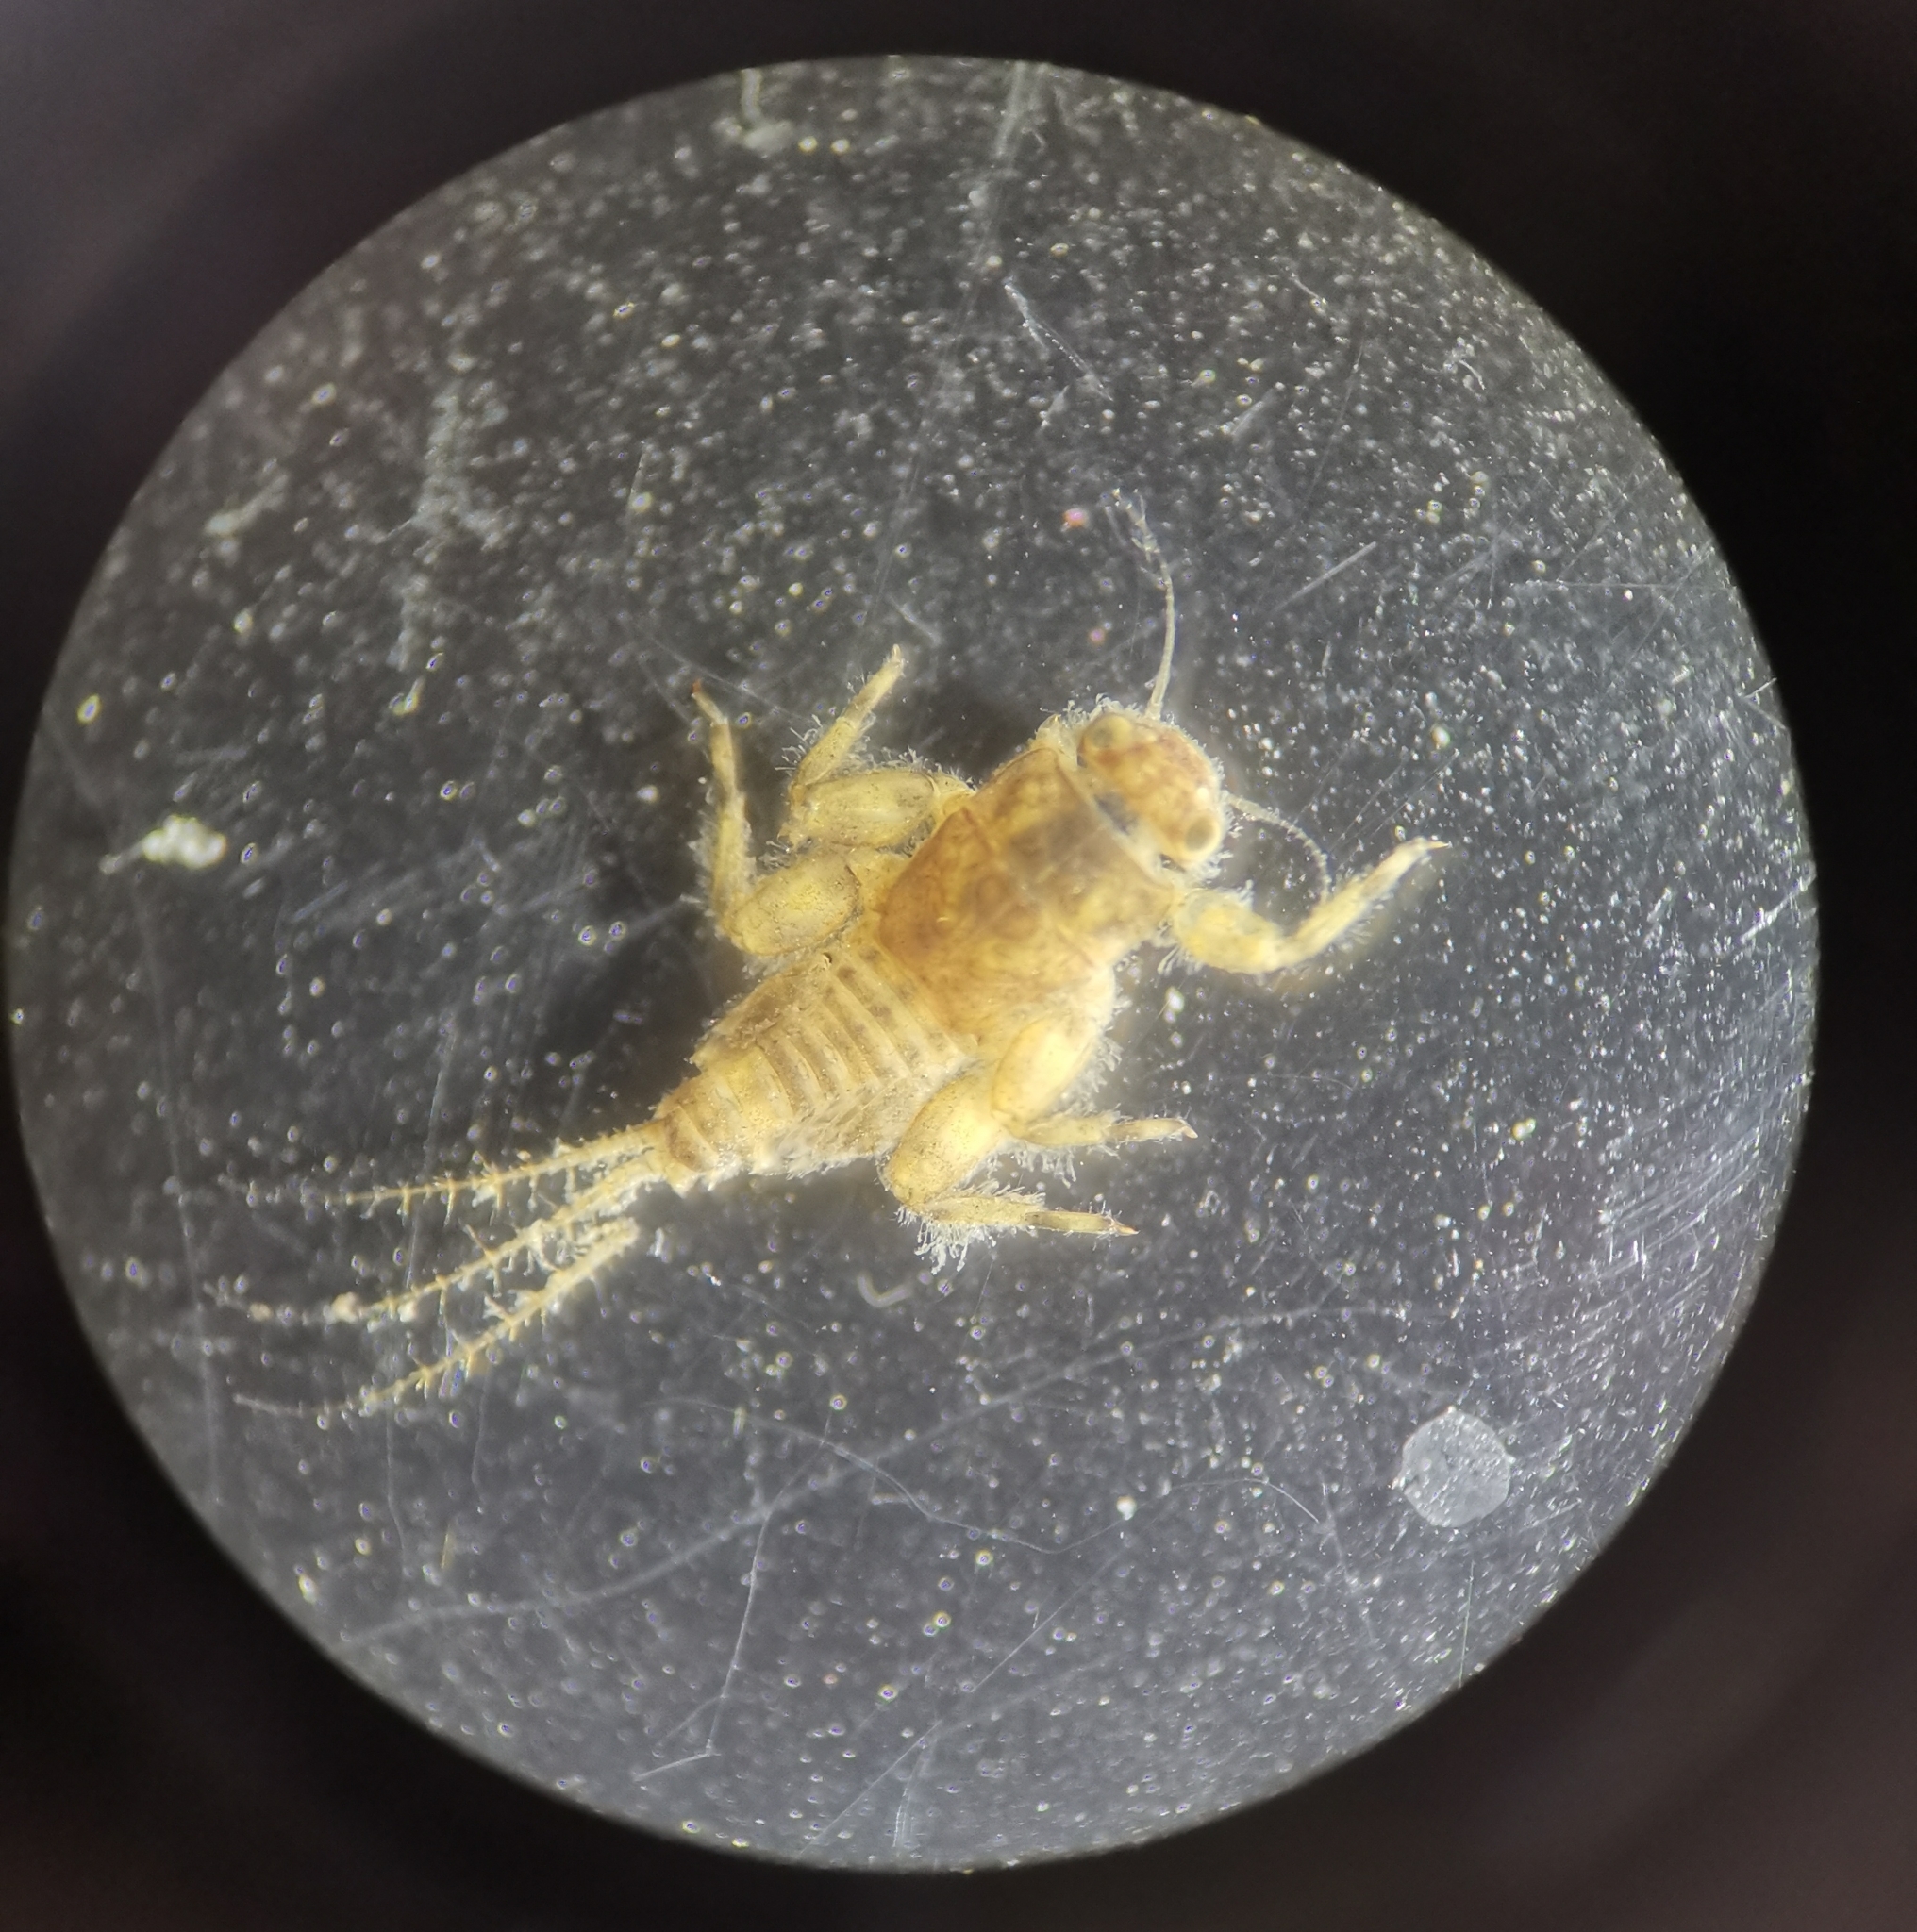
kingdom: Animalia
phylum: Arthropoda
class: Insecta
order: Ephemeroptera
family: Ephemerellidae
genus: Torleya
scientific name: Torleya major
